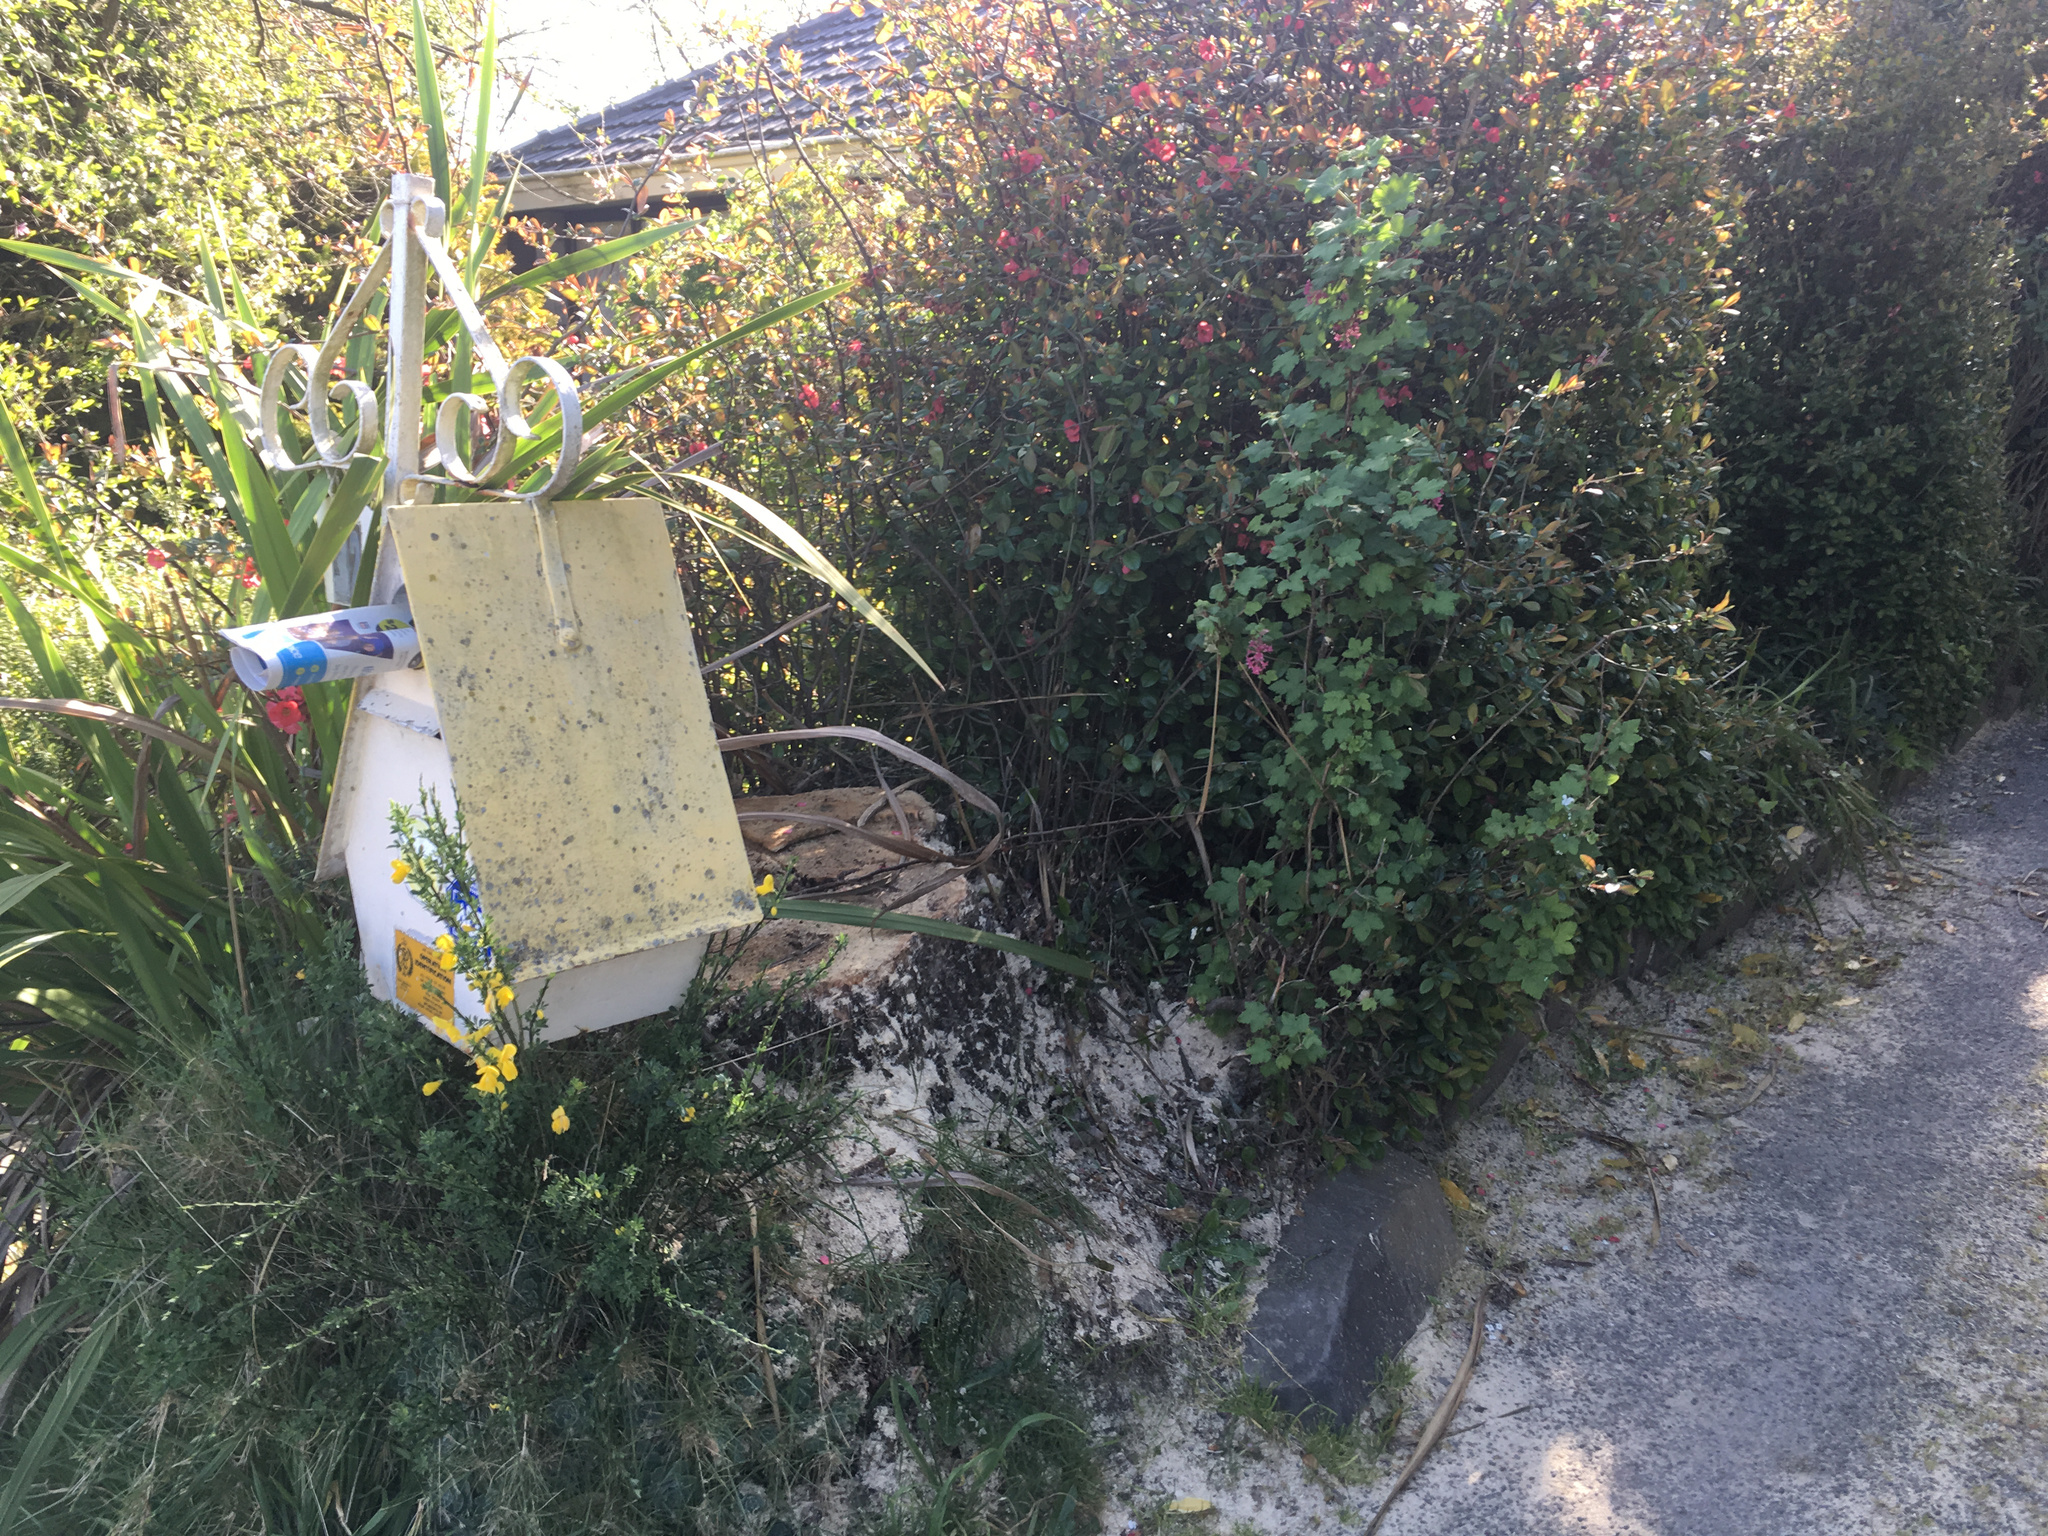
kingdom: Plantae
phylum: Tracheophyta
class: Magnoliopsida
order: Saxifragales
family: Grossulariaceae
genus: Ribes
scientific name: Ribes sanguineum
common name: Flowering currant
